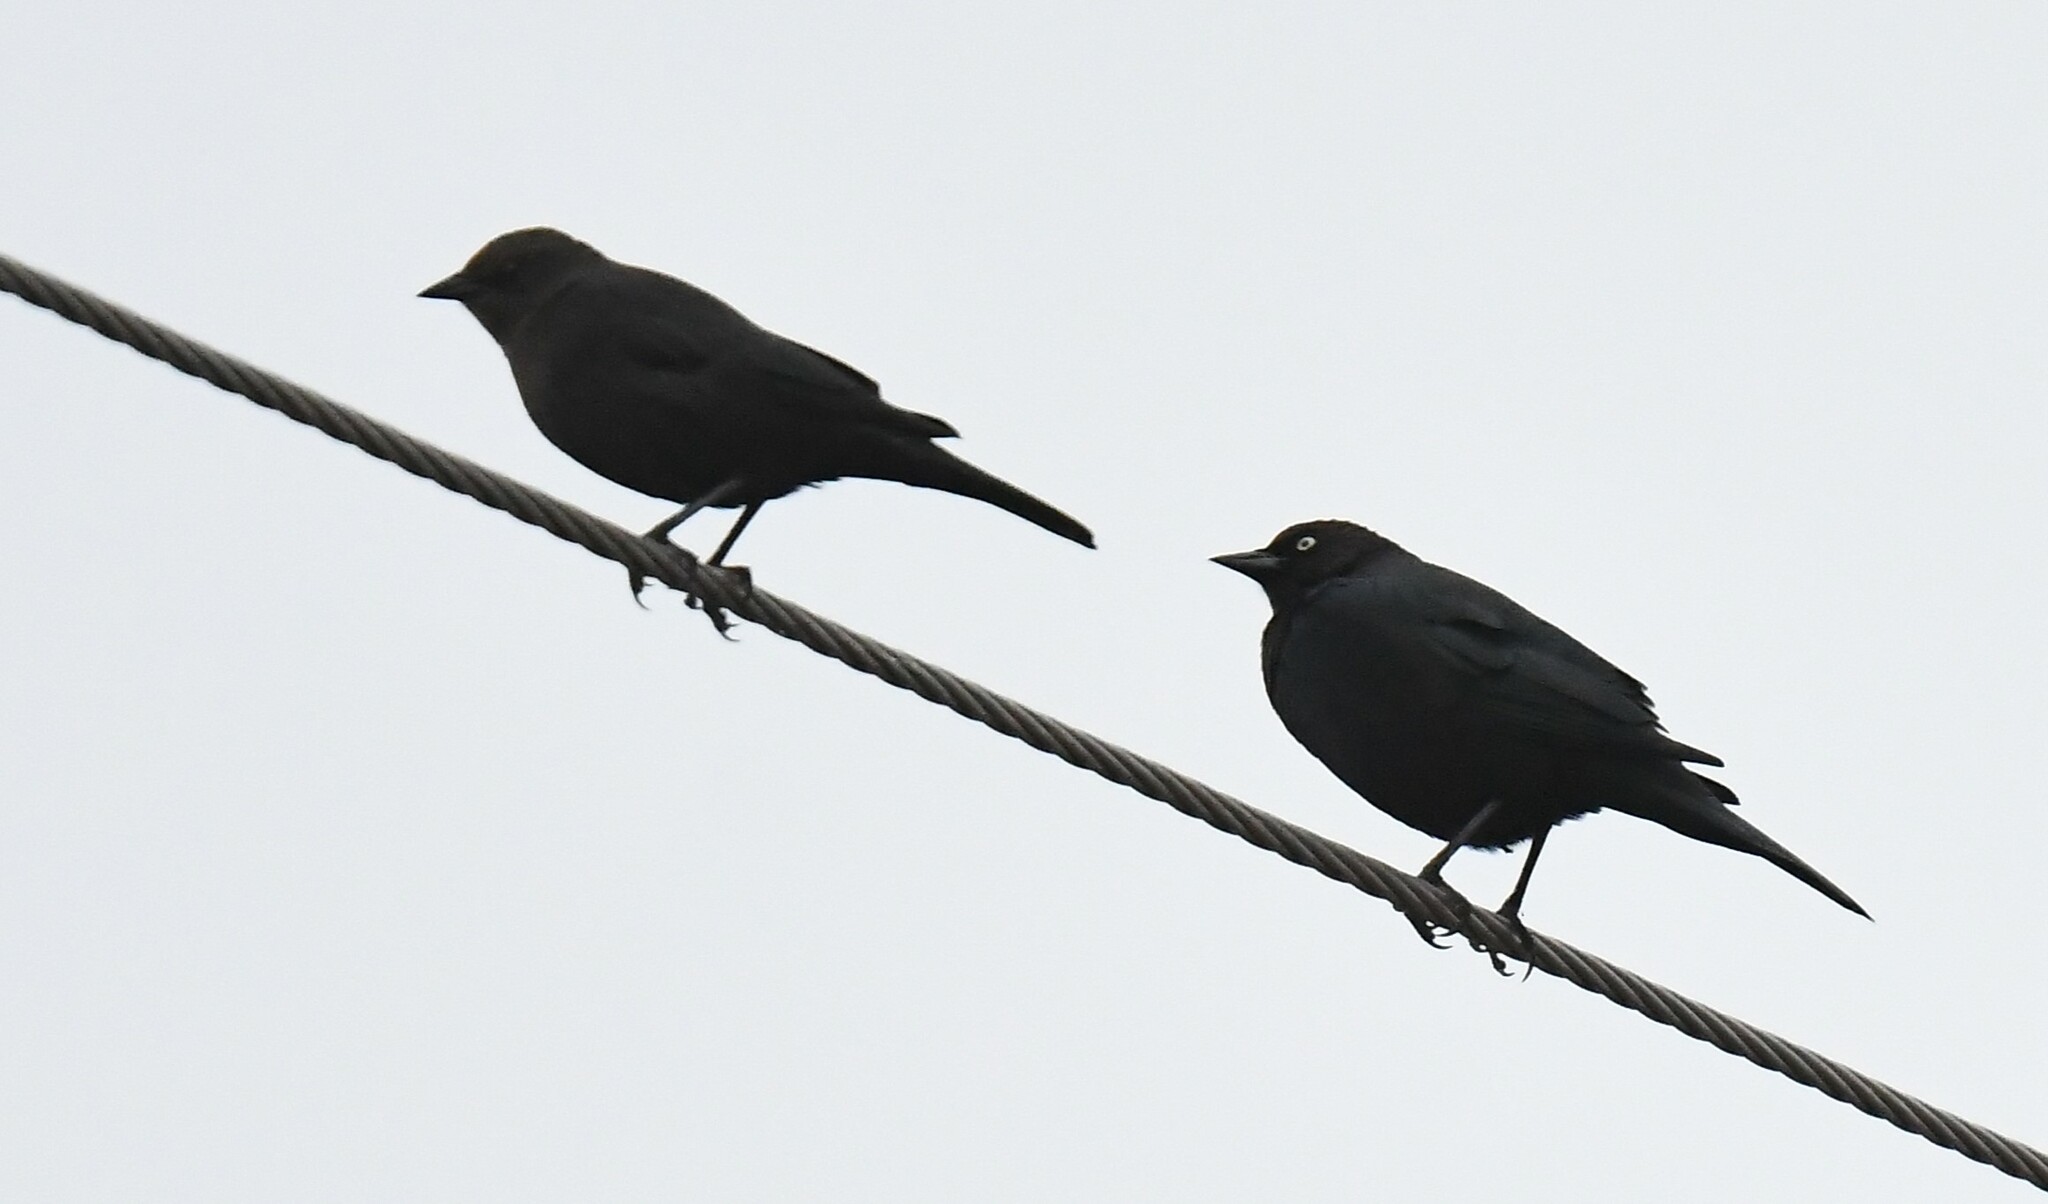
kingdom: Animalia
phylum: Chordata
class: Aves
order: Passeriformes
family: Icteridae
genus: Euphagus
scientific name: Euphagus cyanocephalus
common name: Brewer's blackbird
